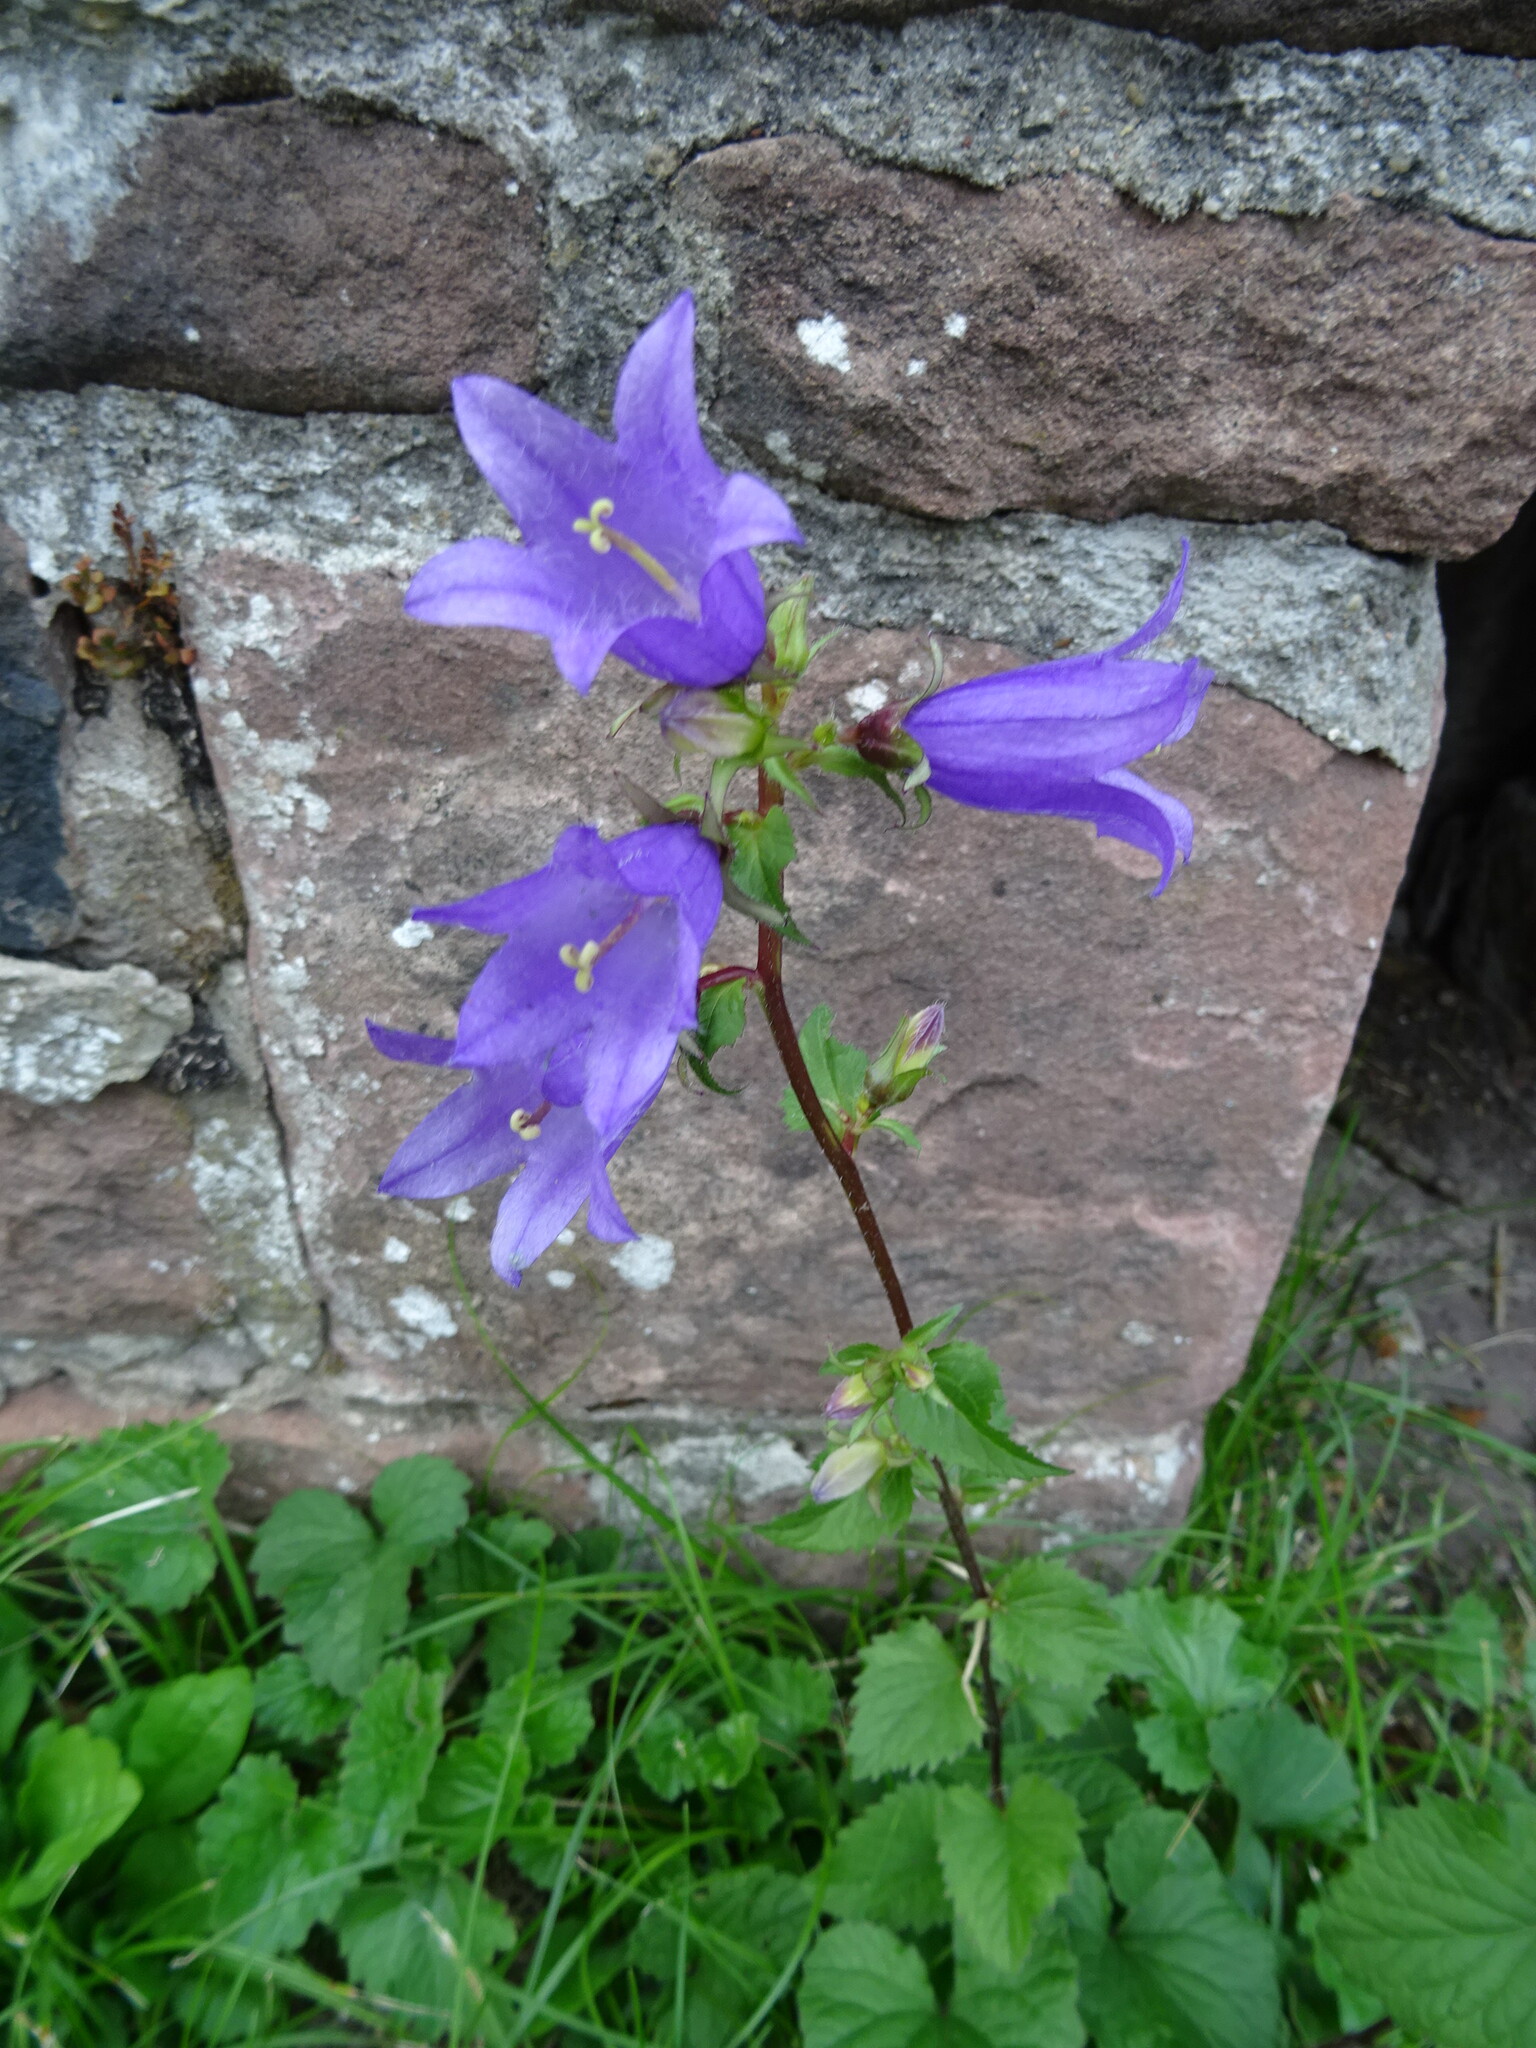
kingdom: Plantae
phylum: Tracheophyta
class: Magnoliopsida
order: Asterales
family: Campanulaceae
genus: Campanula
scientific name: Campanula trachelium
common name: Nettle-leaved bellflower
